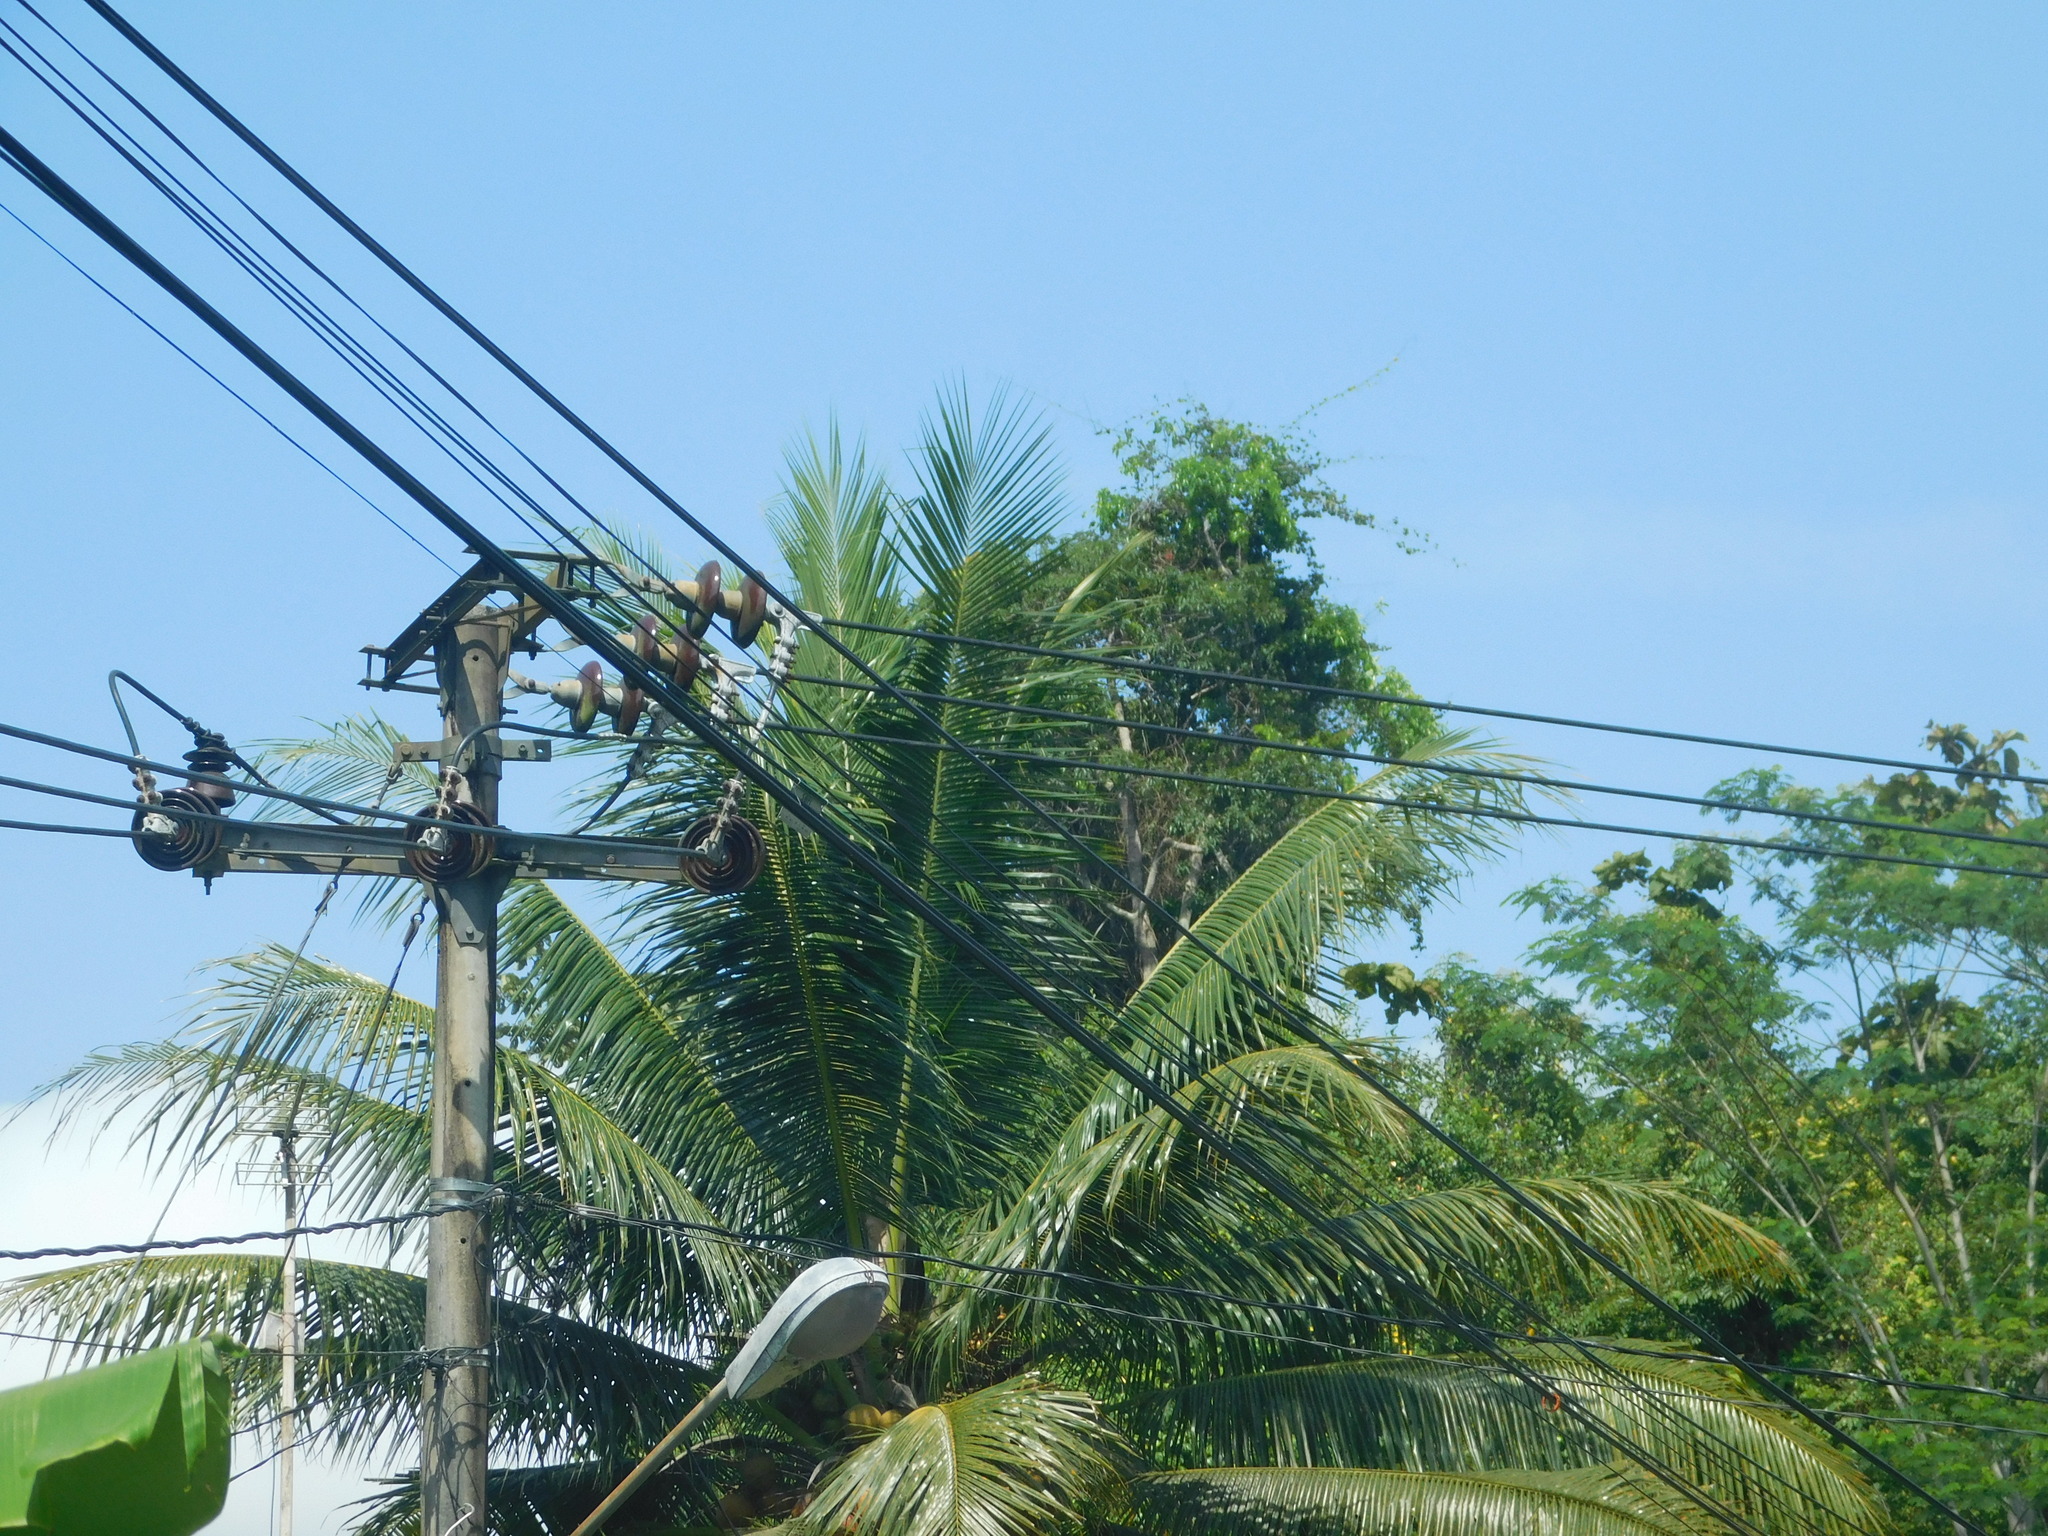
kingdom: Plantae
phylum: Tracheophyta
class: Liliopsida
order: Arecales
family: Arecaceae
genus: Cocos
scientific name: Cocos nucifera
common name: Coconut palm
